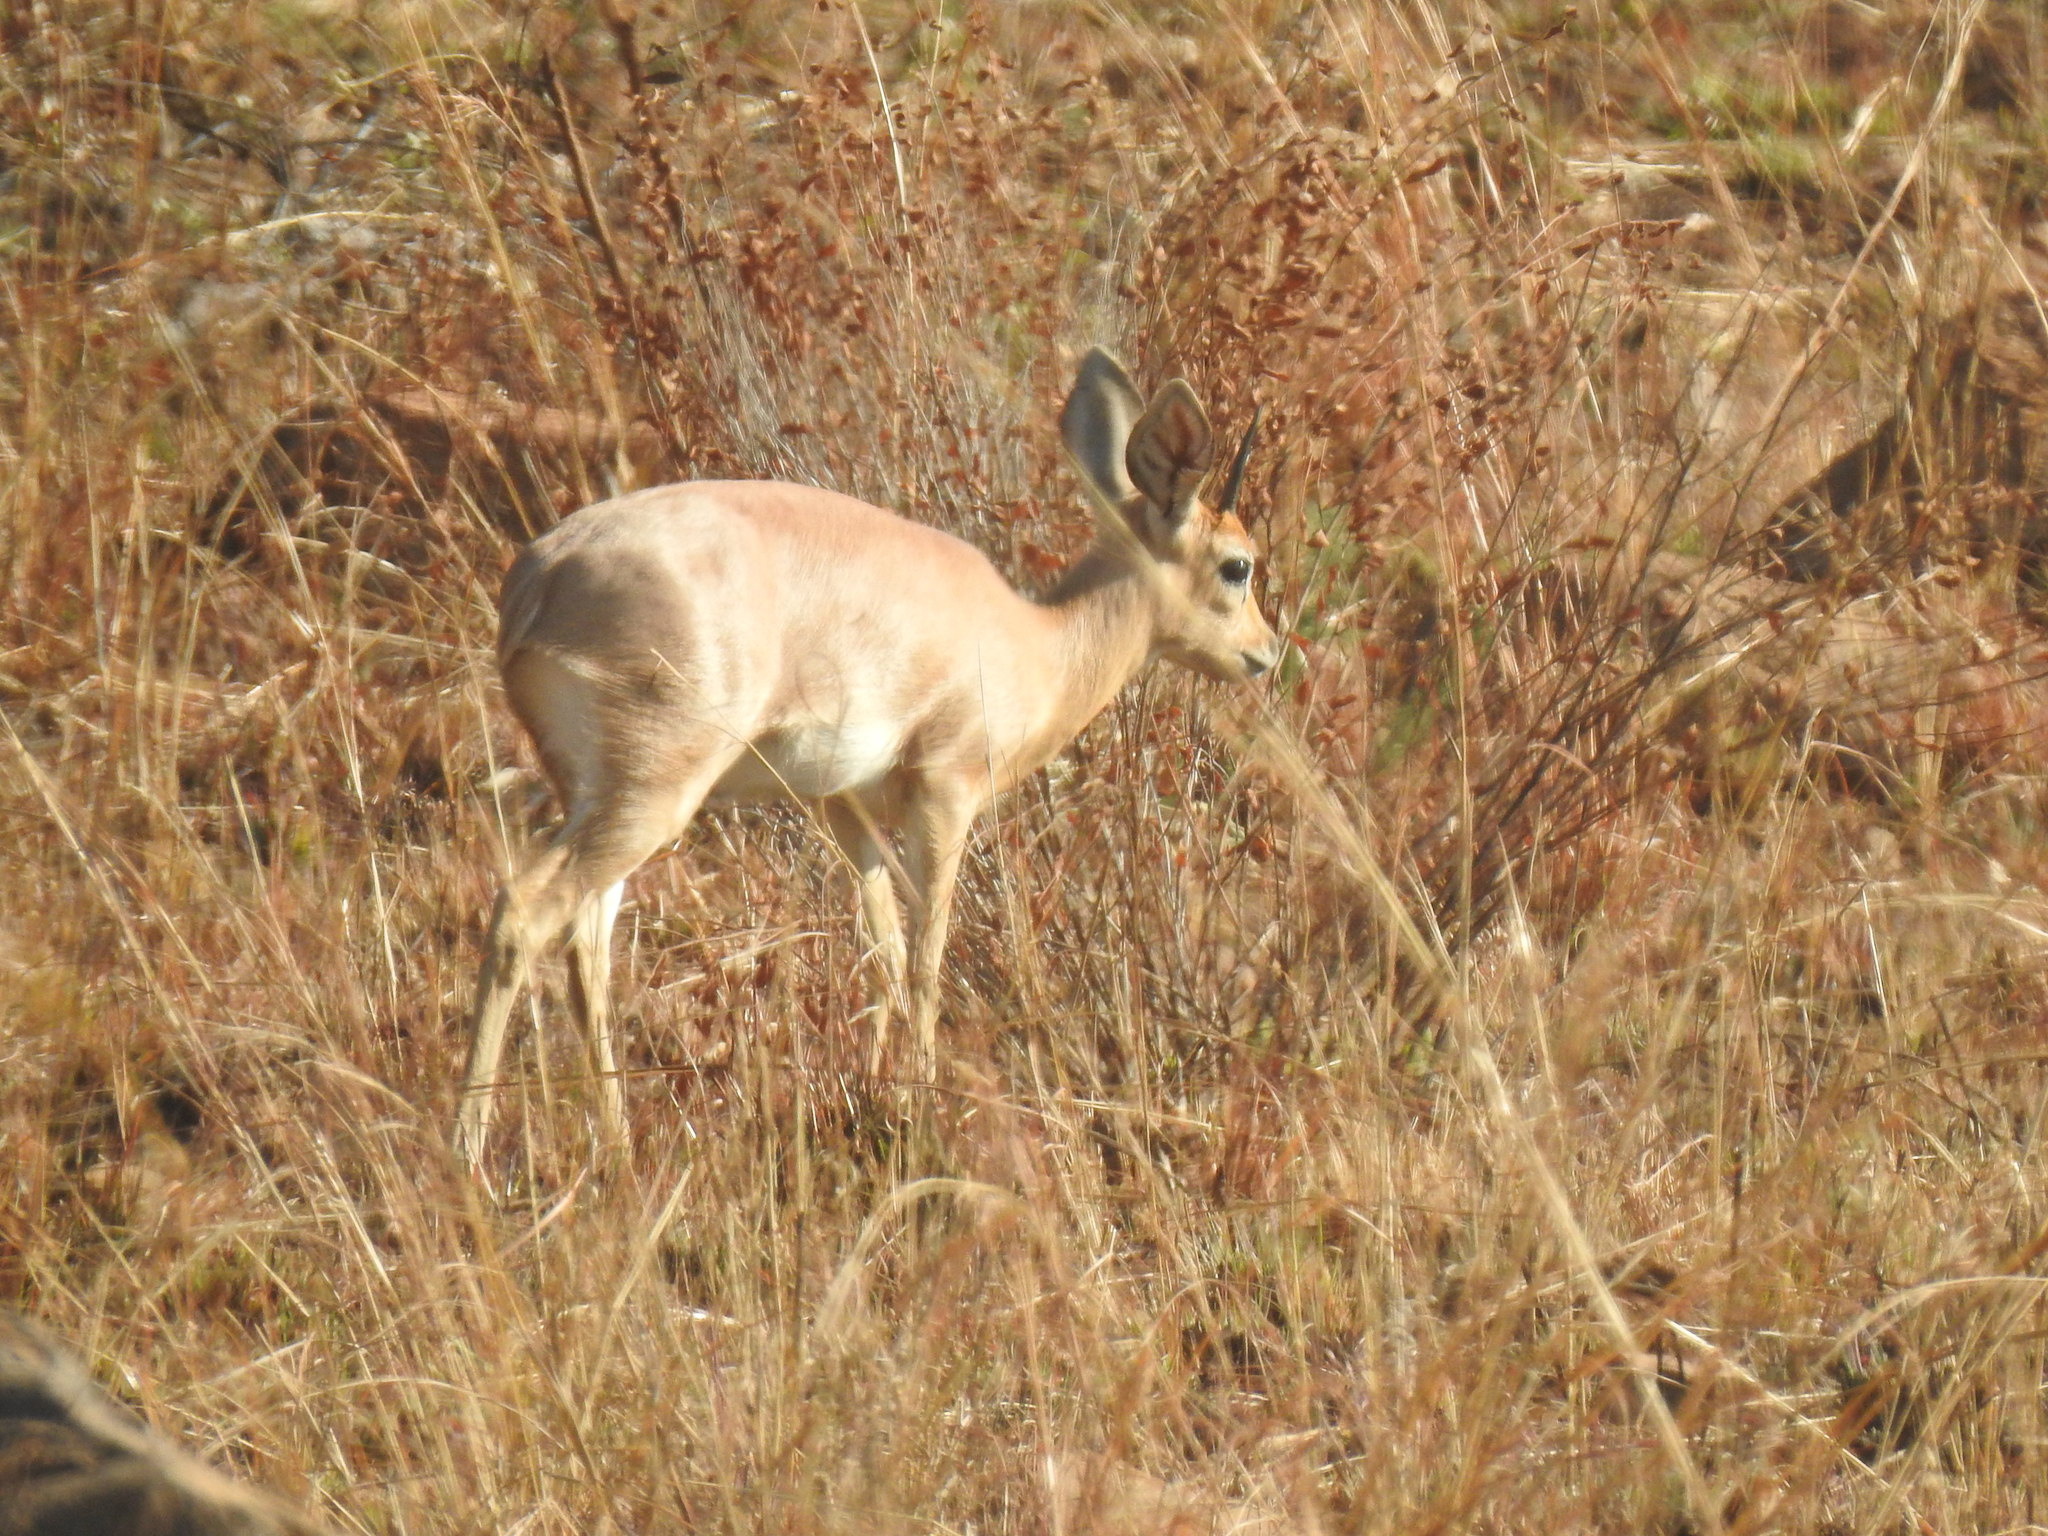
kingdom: Animalia
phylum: Chordata
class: Mammalia
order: Artiodactyla
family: Bovidae
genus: Raphicerus
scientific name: Raphicerus campestris
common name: Steenbok
